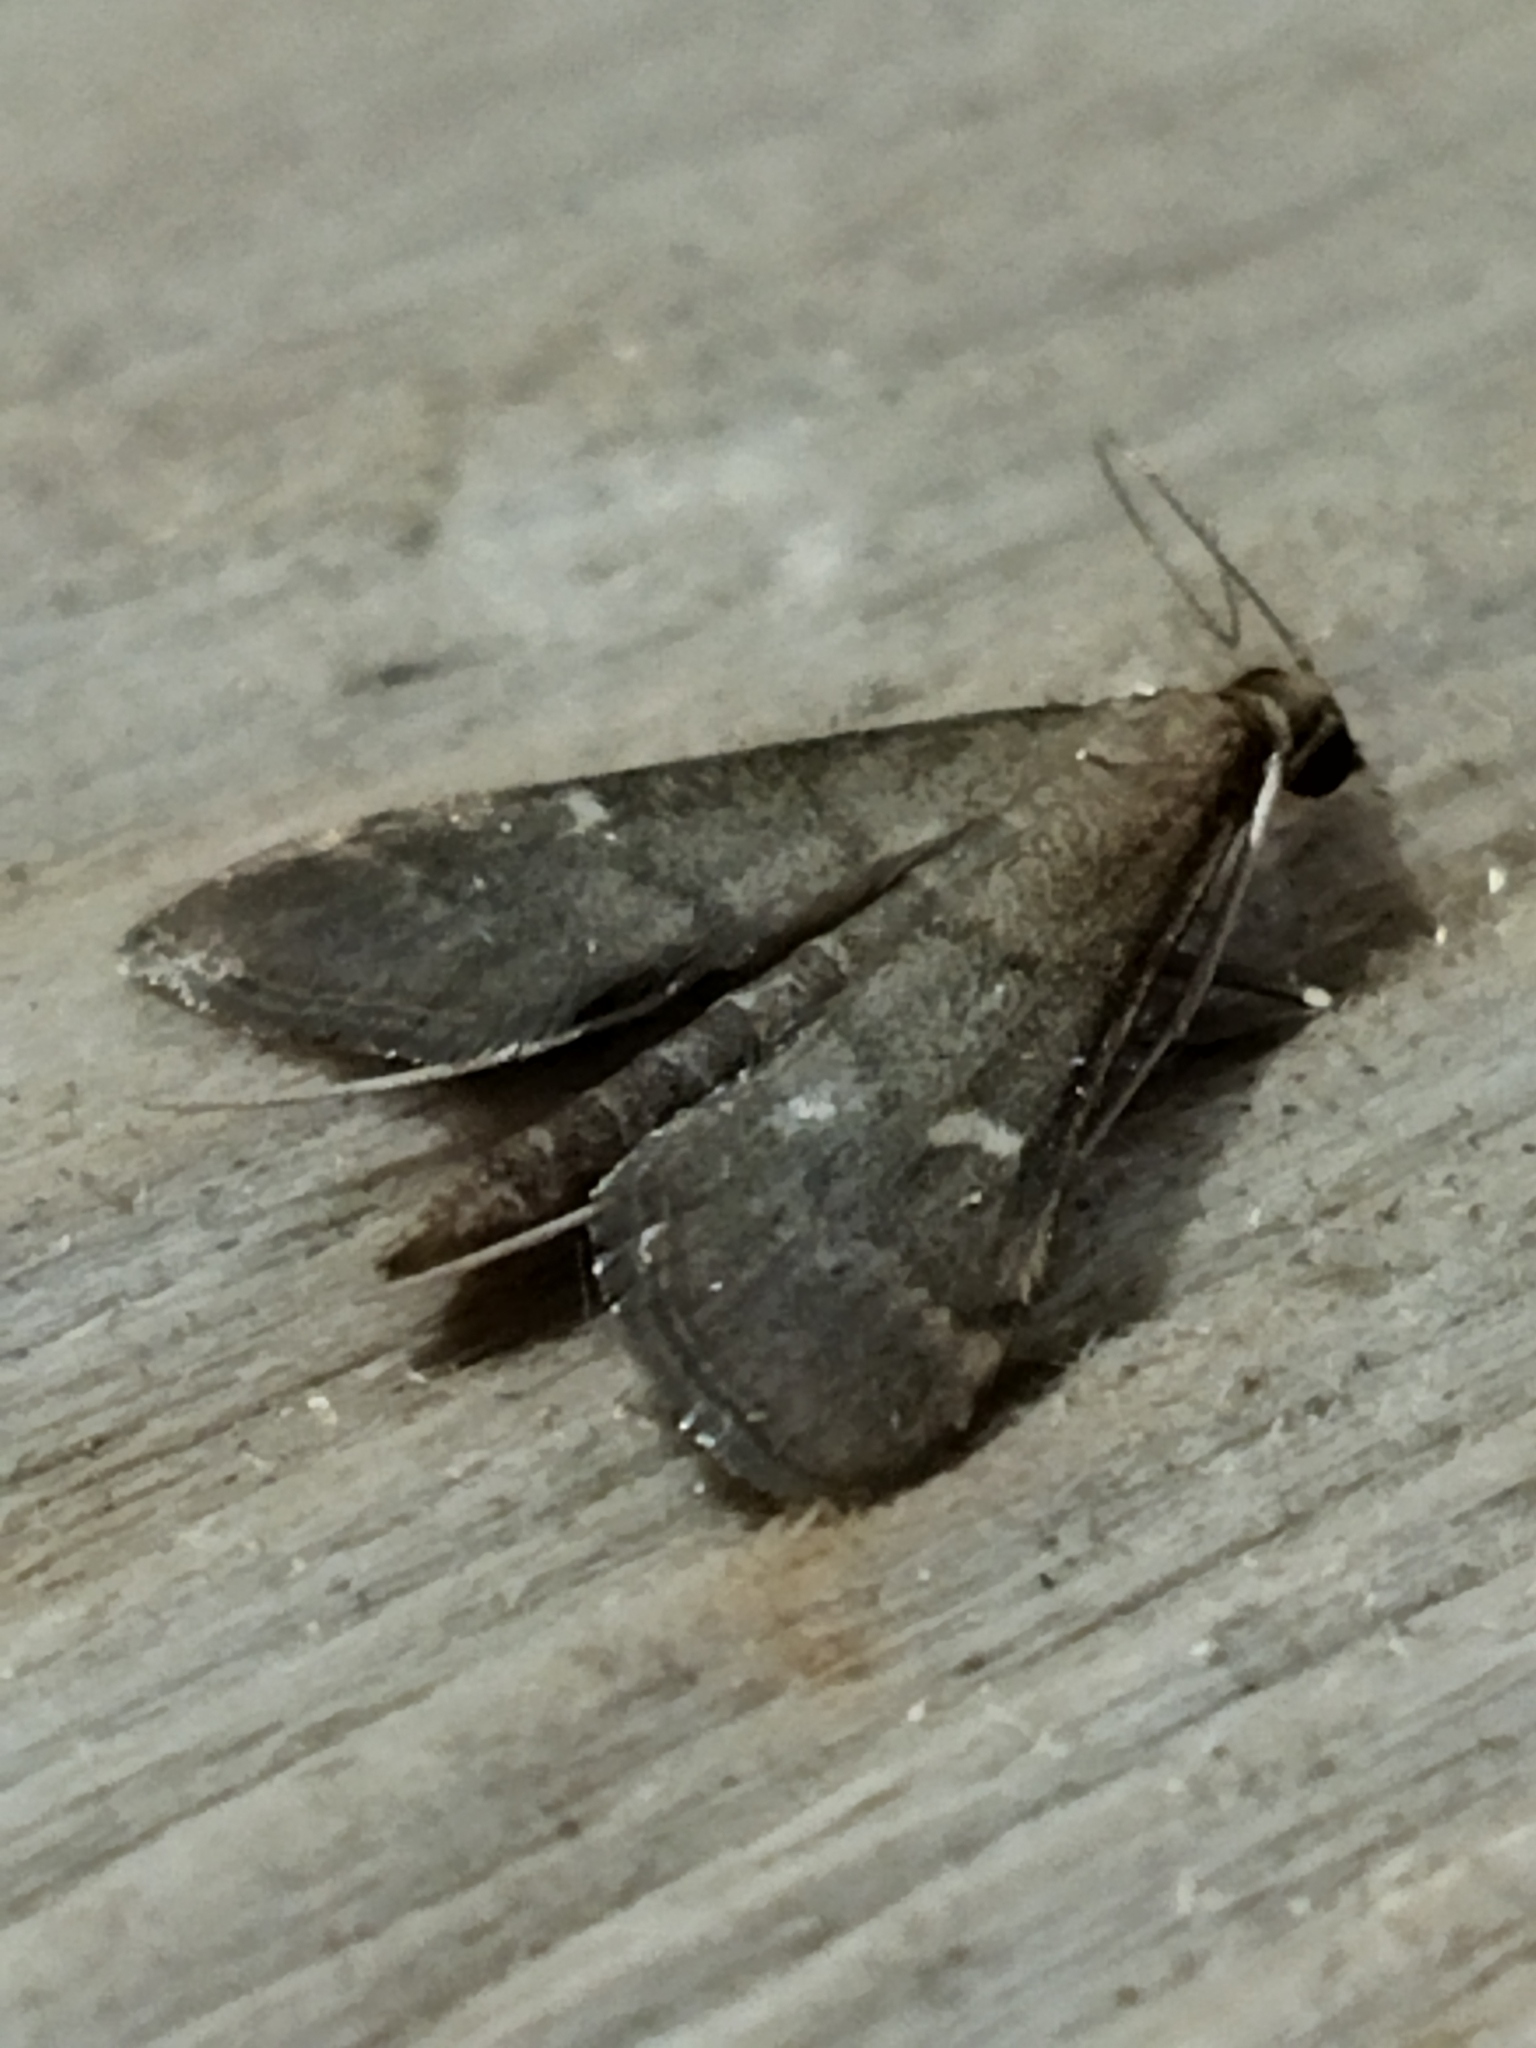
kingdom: Animalia
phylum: Arthropoda
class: Insecta
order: Lepidoptera
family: Crambidae
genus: Stenia
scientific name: Stenia Dolicharthria punctalis
